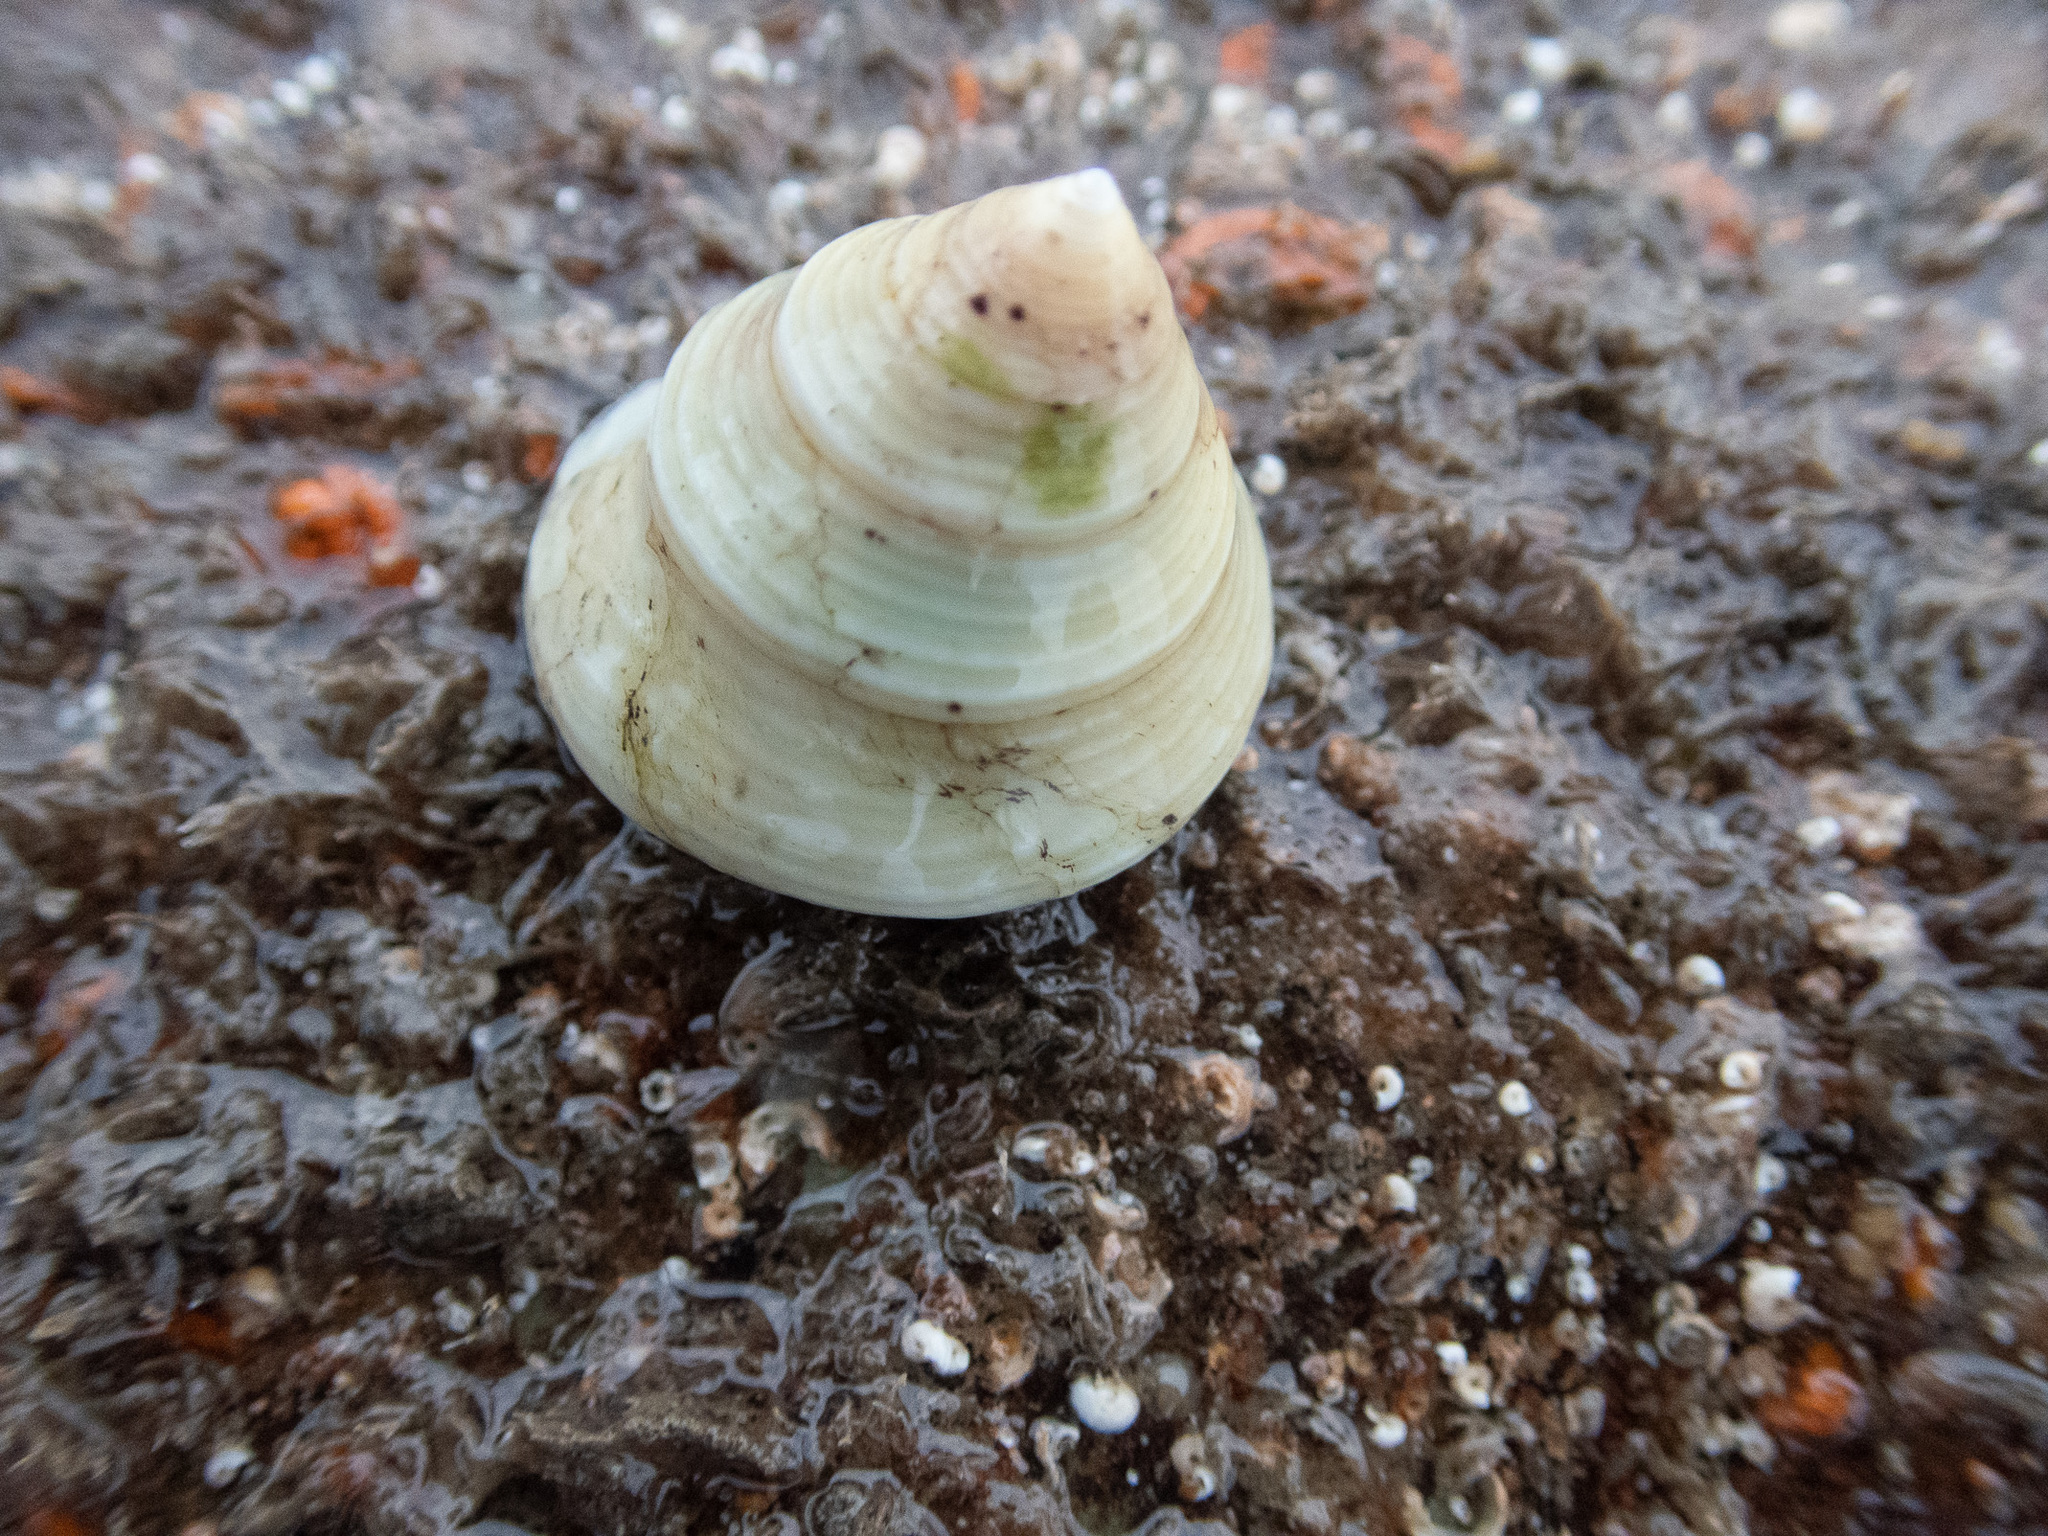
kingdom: Animalia
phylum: Mollusca
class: Gastropoda
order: Trochida
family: Calliostomatidae
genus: Calliostoma
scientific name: Calliostoma zizyphinum
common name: Painted top shell
